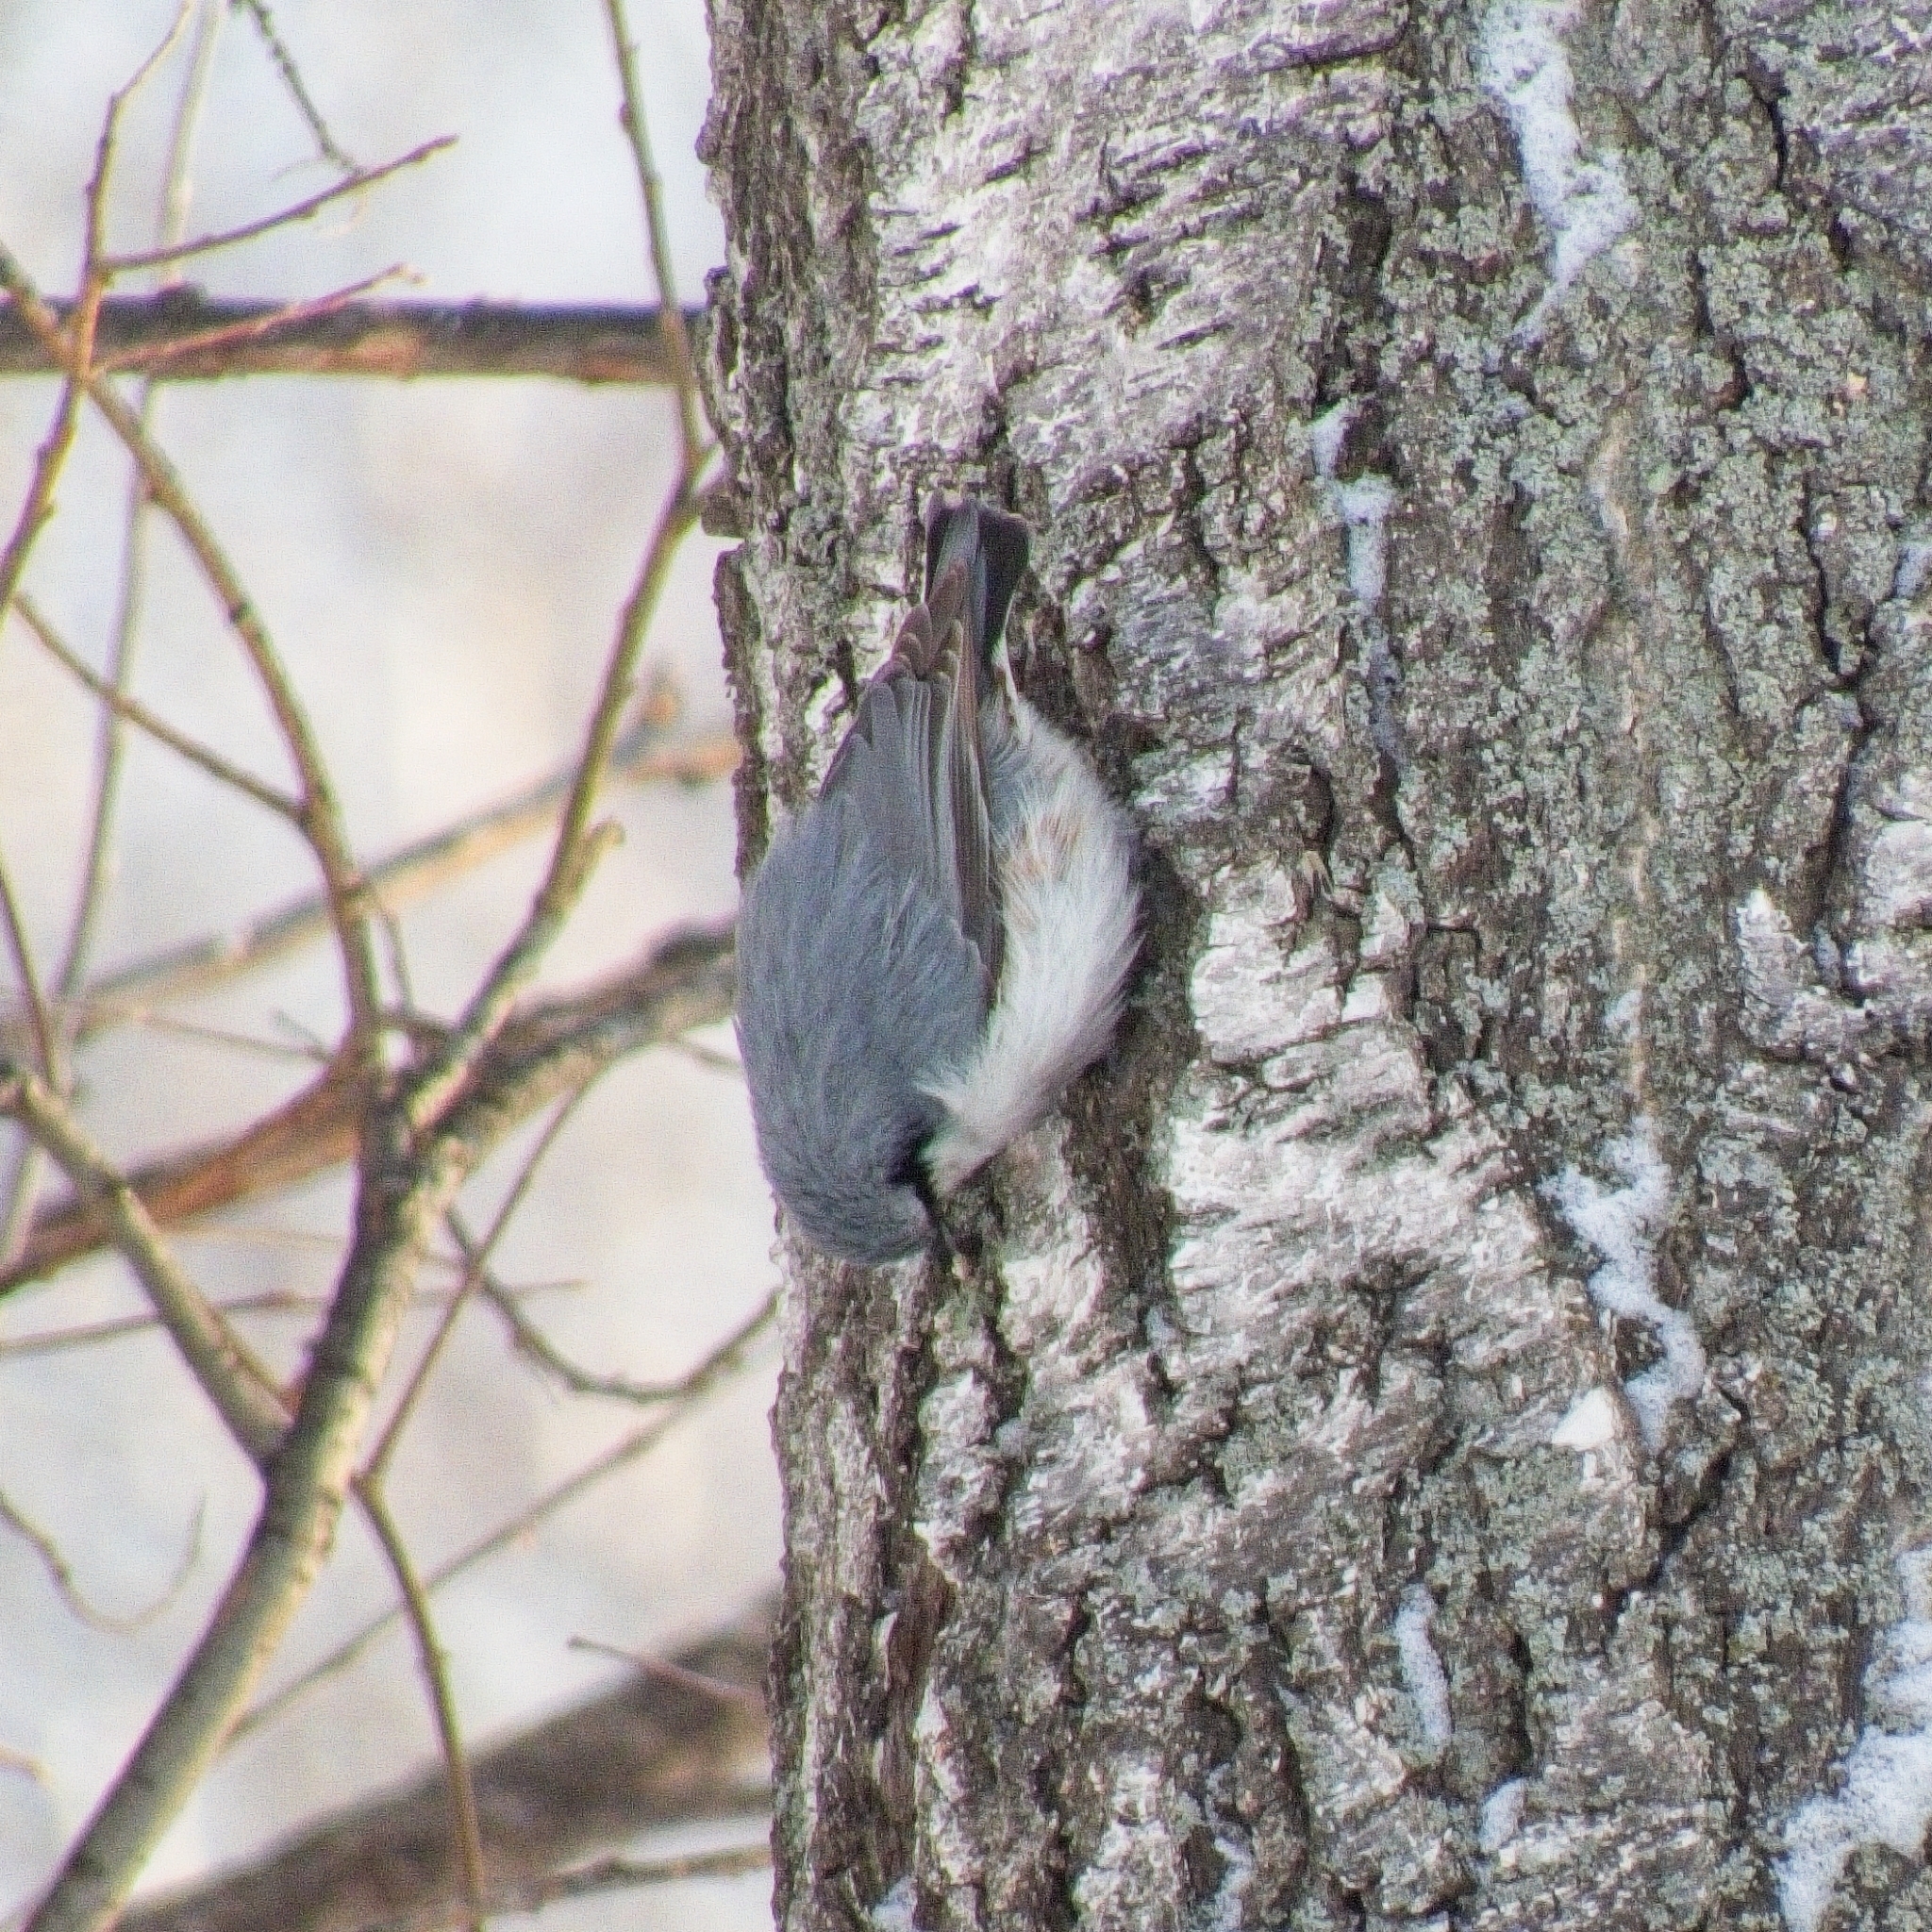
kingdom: Animalia
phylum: Chordata
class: Aves
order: Passeriformes
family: Sittidae
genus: Sitta
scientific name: Sitta europaea
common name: Eurasian nuthatch
